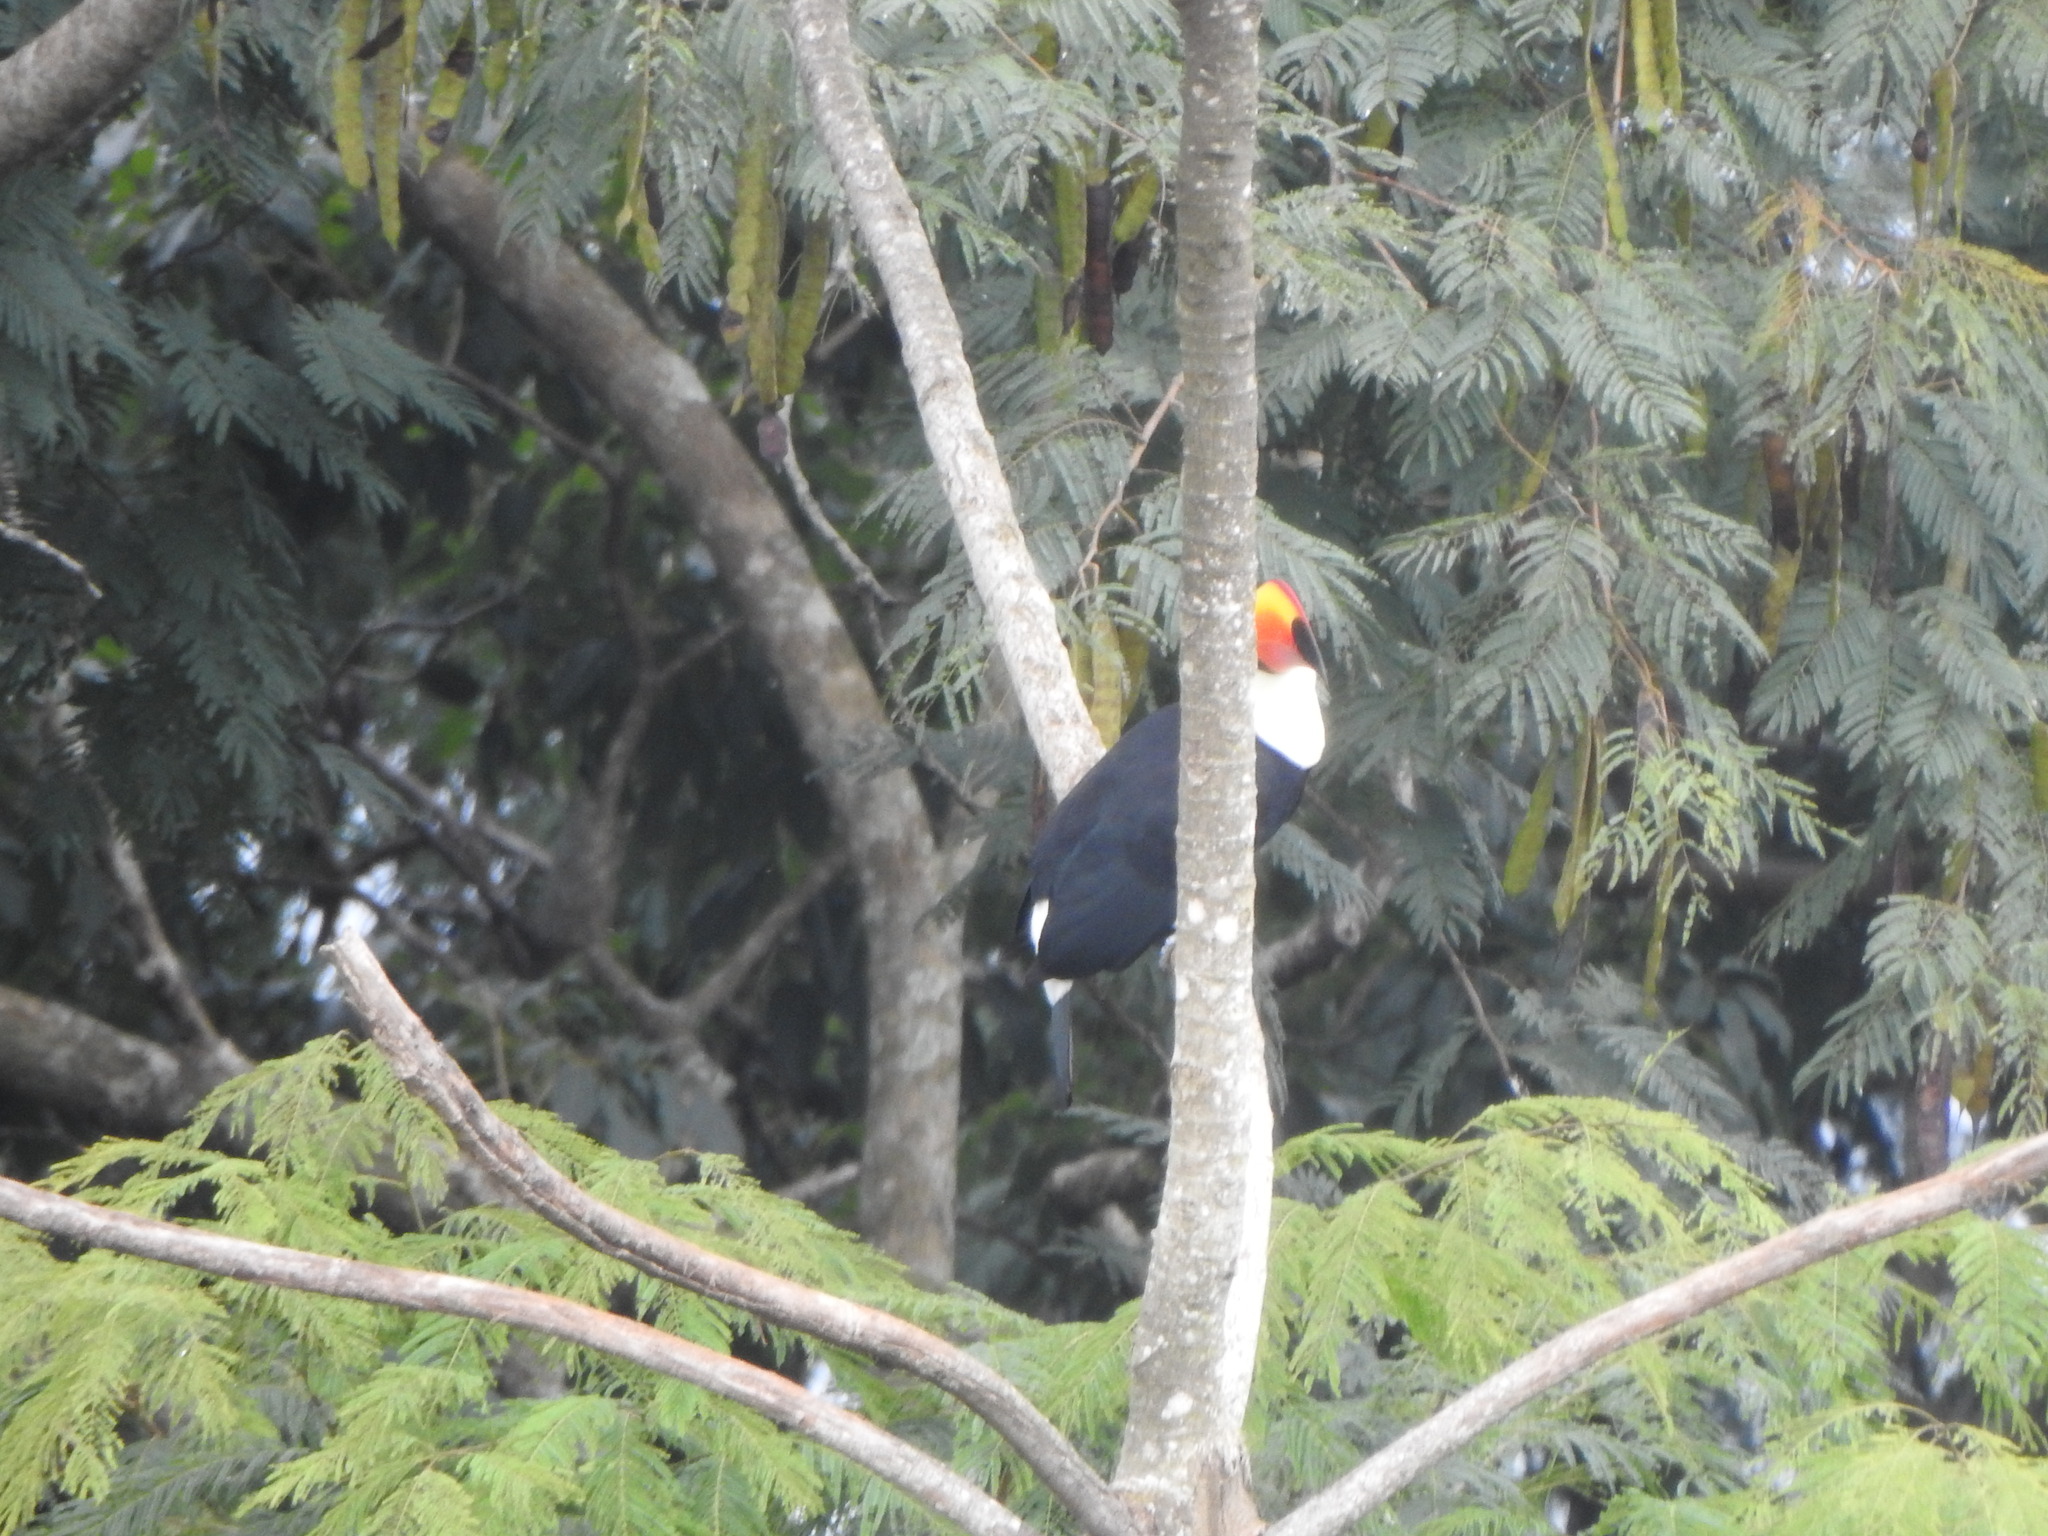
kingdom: Animalia
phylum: Chordata
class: Aves
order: Piciformes
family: Ramphastidae
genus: Ramphastos
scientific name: Ramphastos toco
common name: Toco toucan
